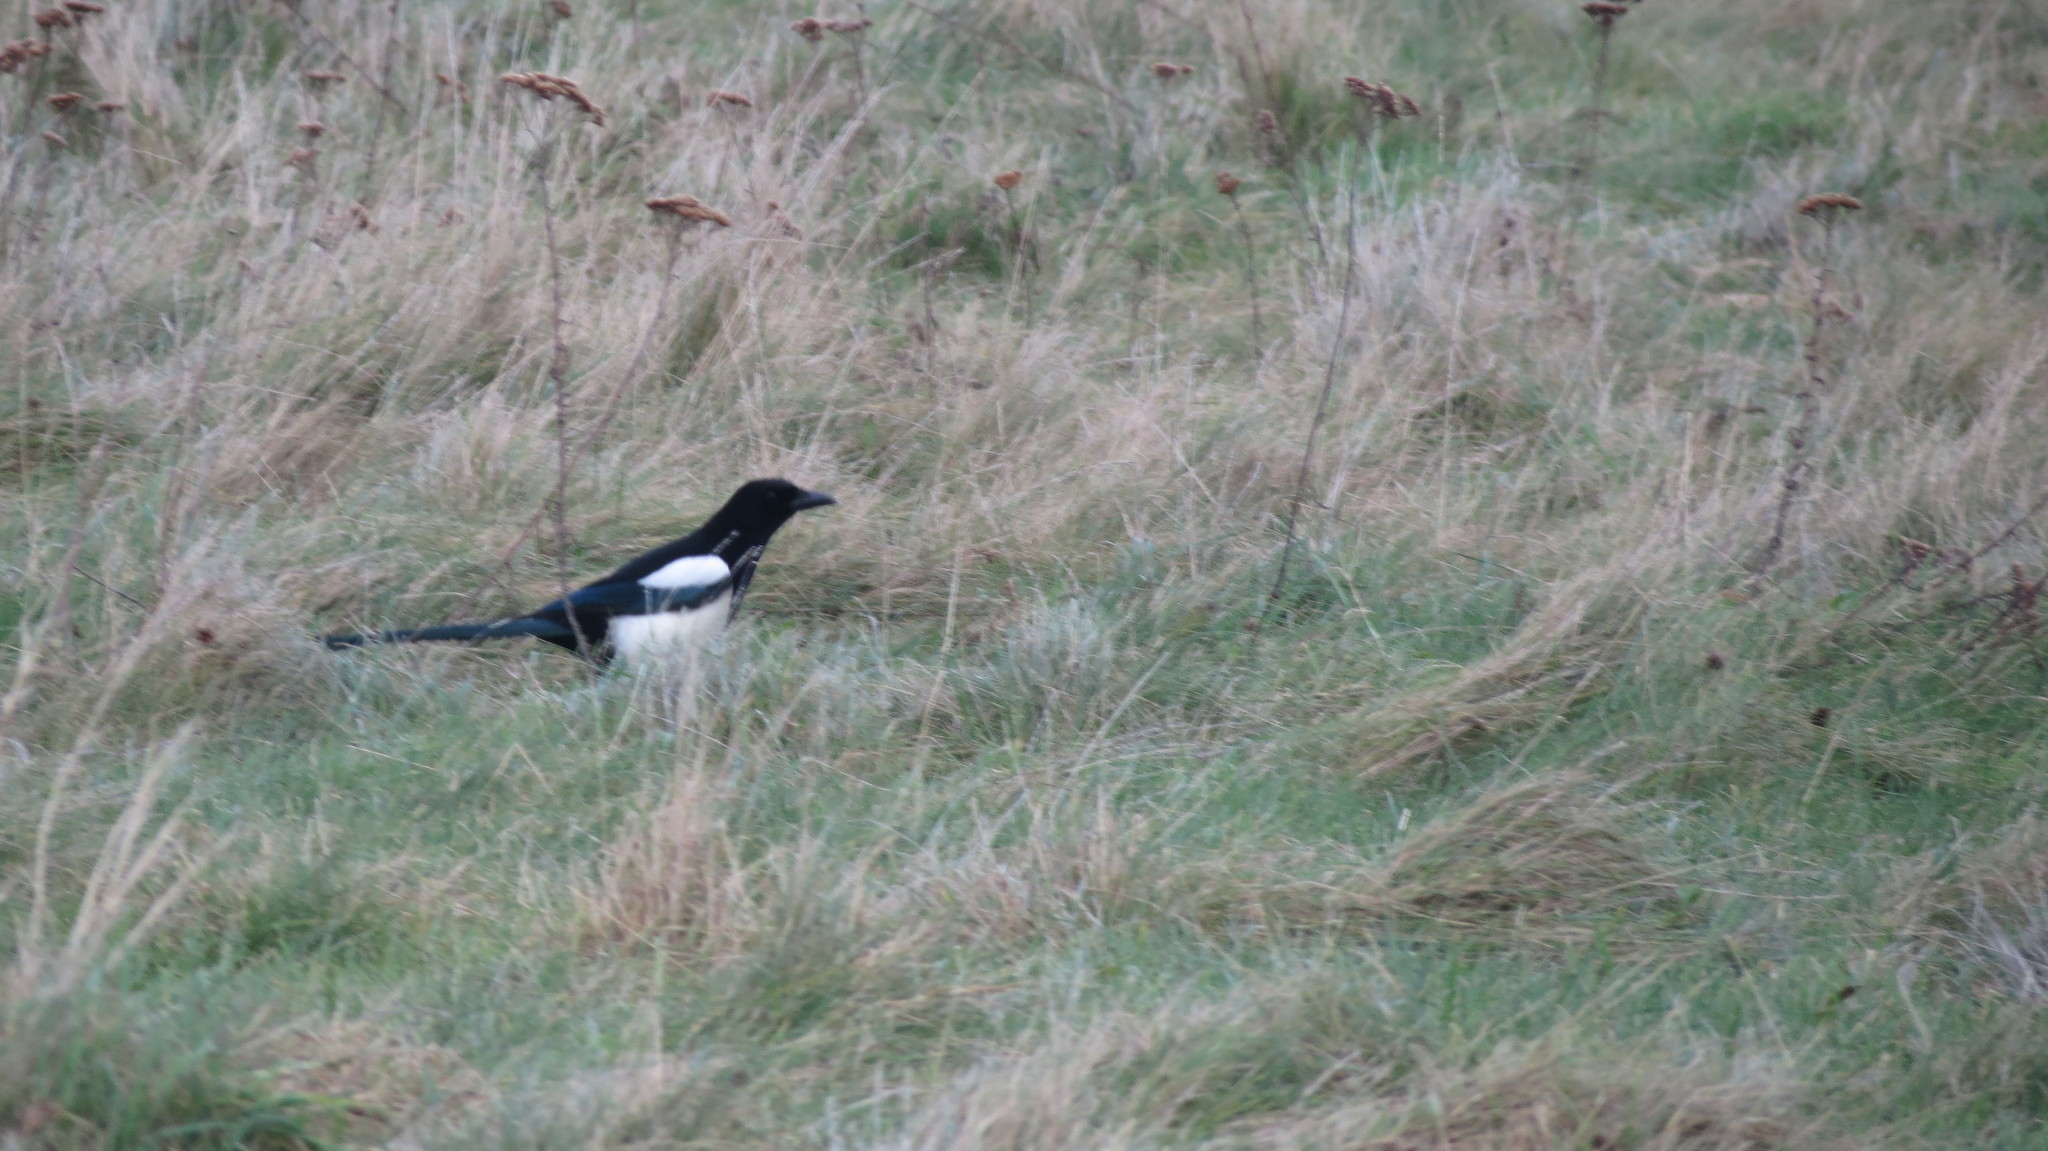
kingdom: Animalia
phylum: Chordata
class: Aves
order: Passeriformes
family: Corvidae
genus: Pica
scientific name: Pica pica
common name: Eurasian magpie
